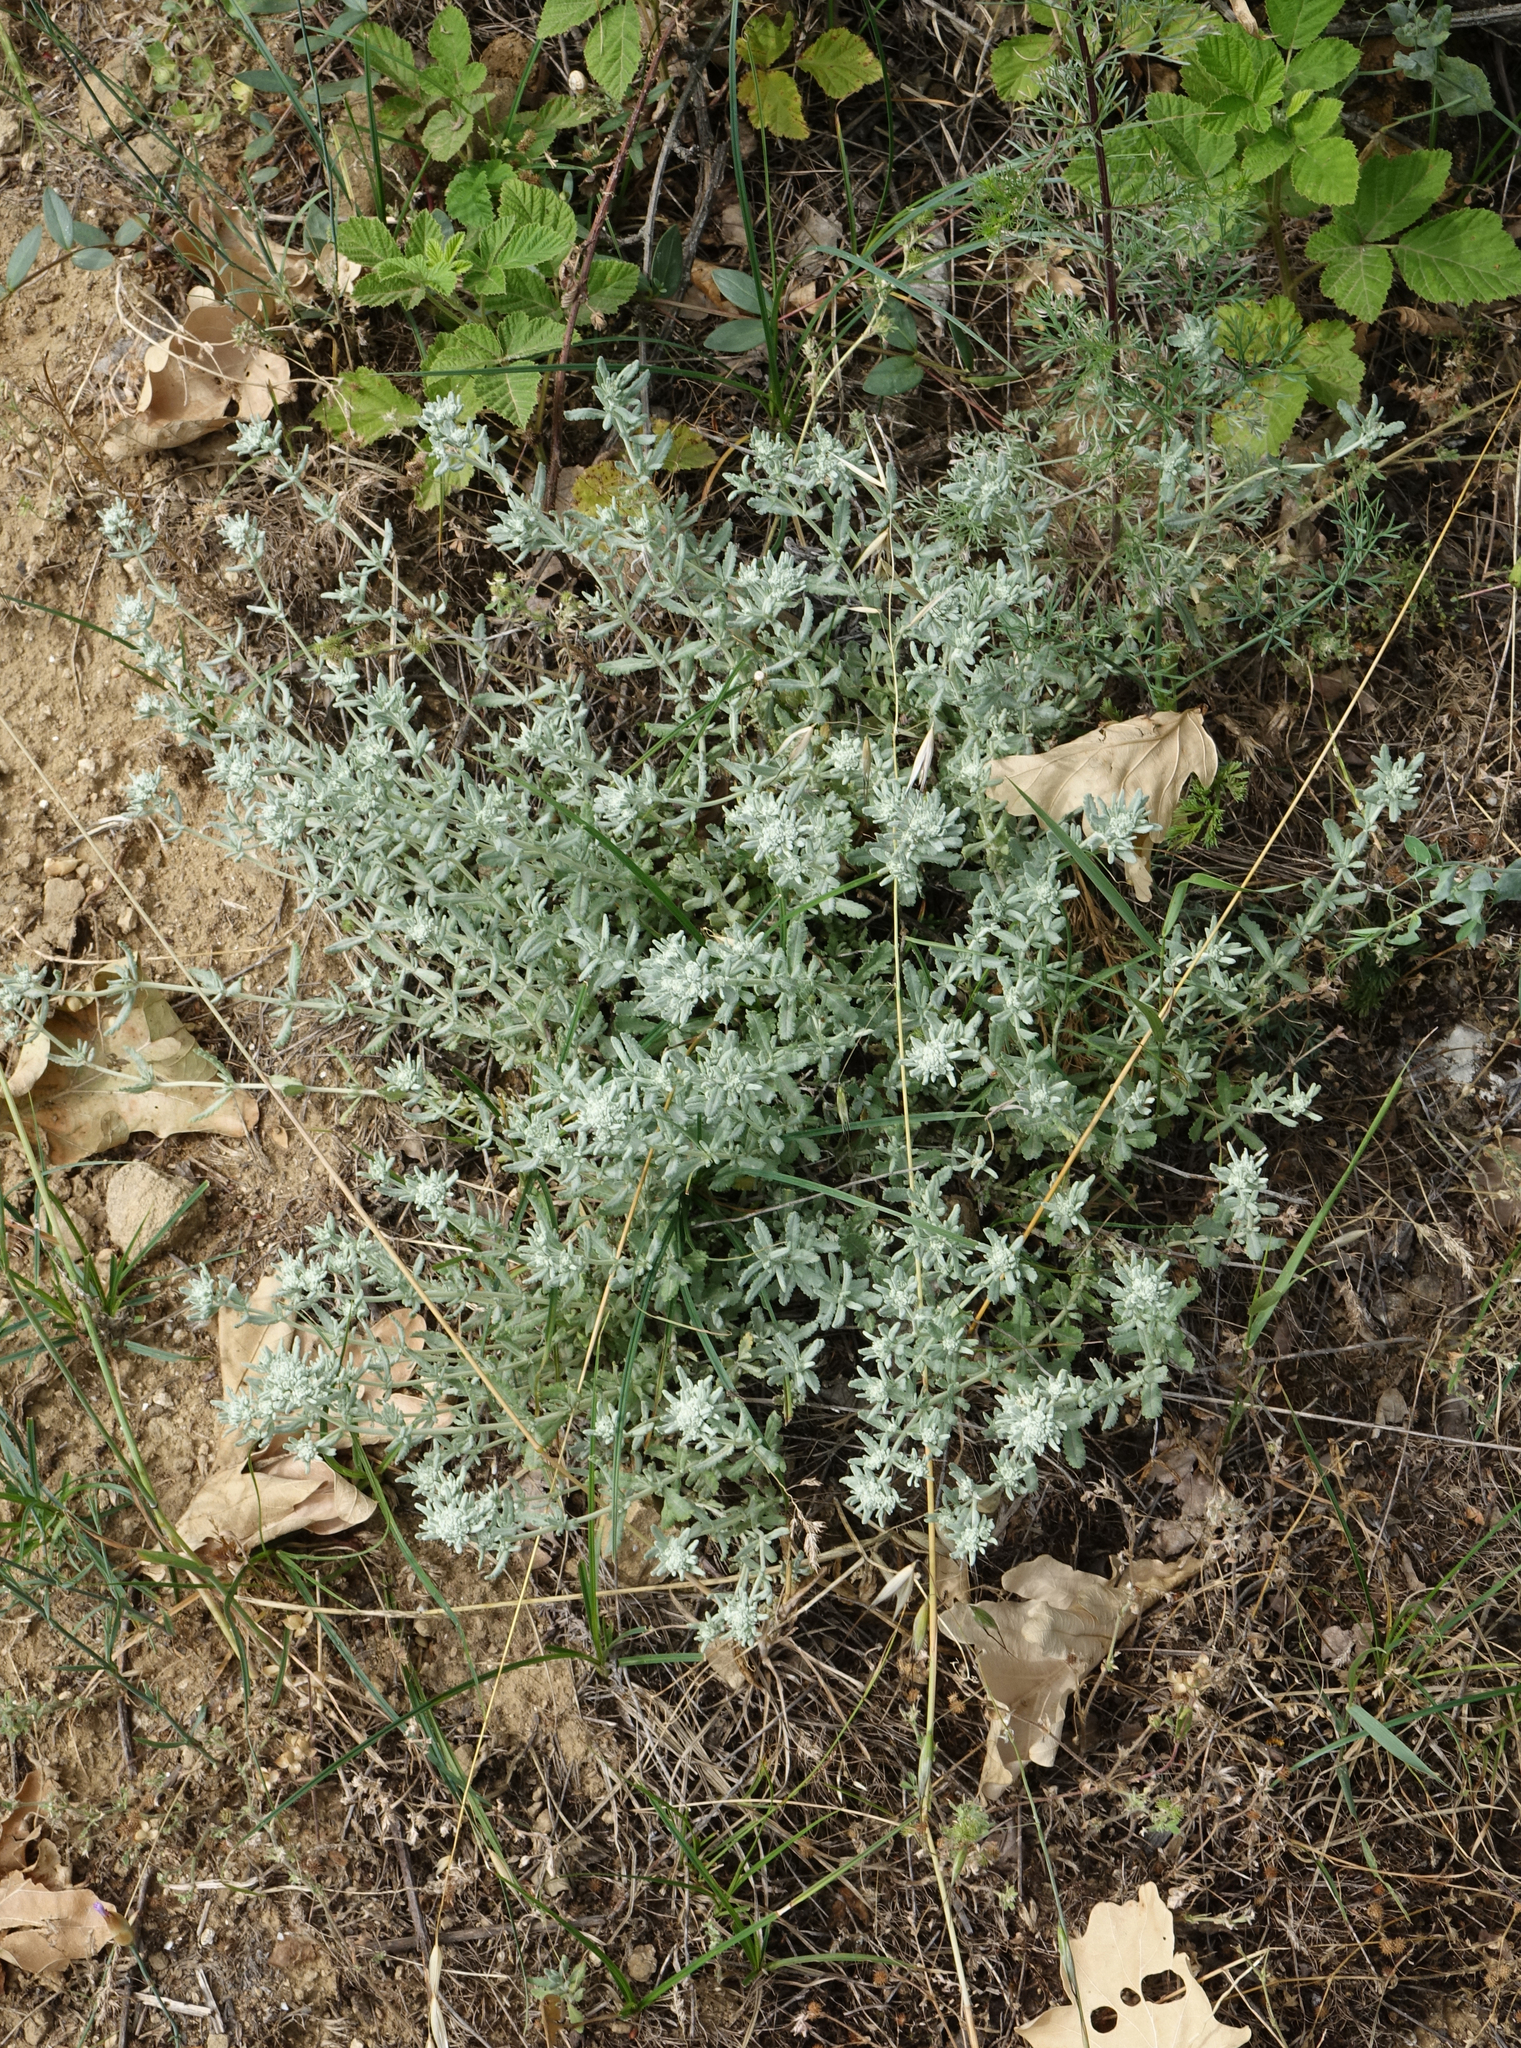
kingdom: Plantae
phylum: Tracheophyta
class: Magnoliopsida
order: Lamiales
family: Lamiaceae
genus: Teucrium
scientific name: Teucrium polium
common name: Poley
